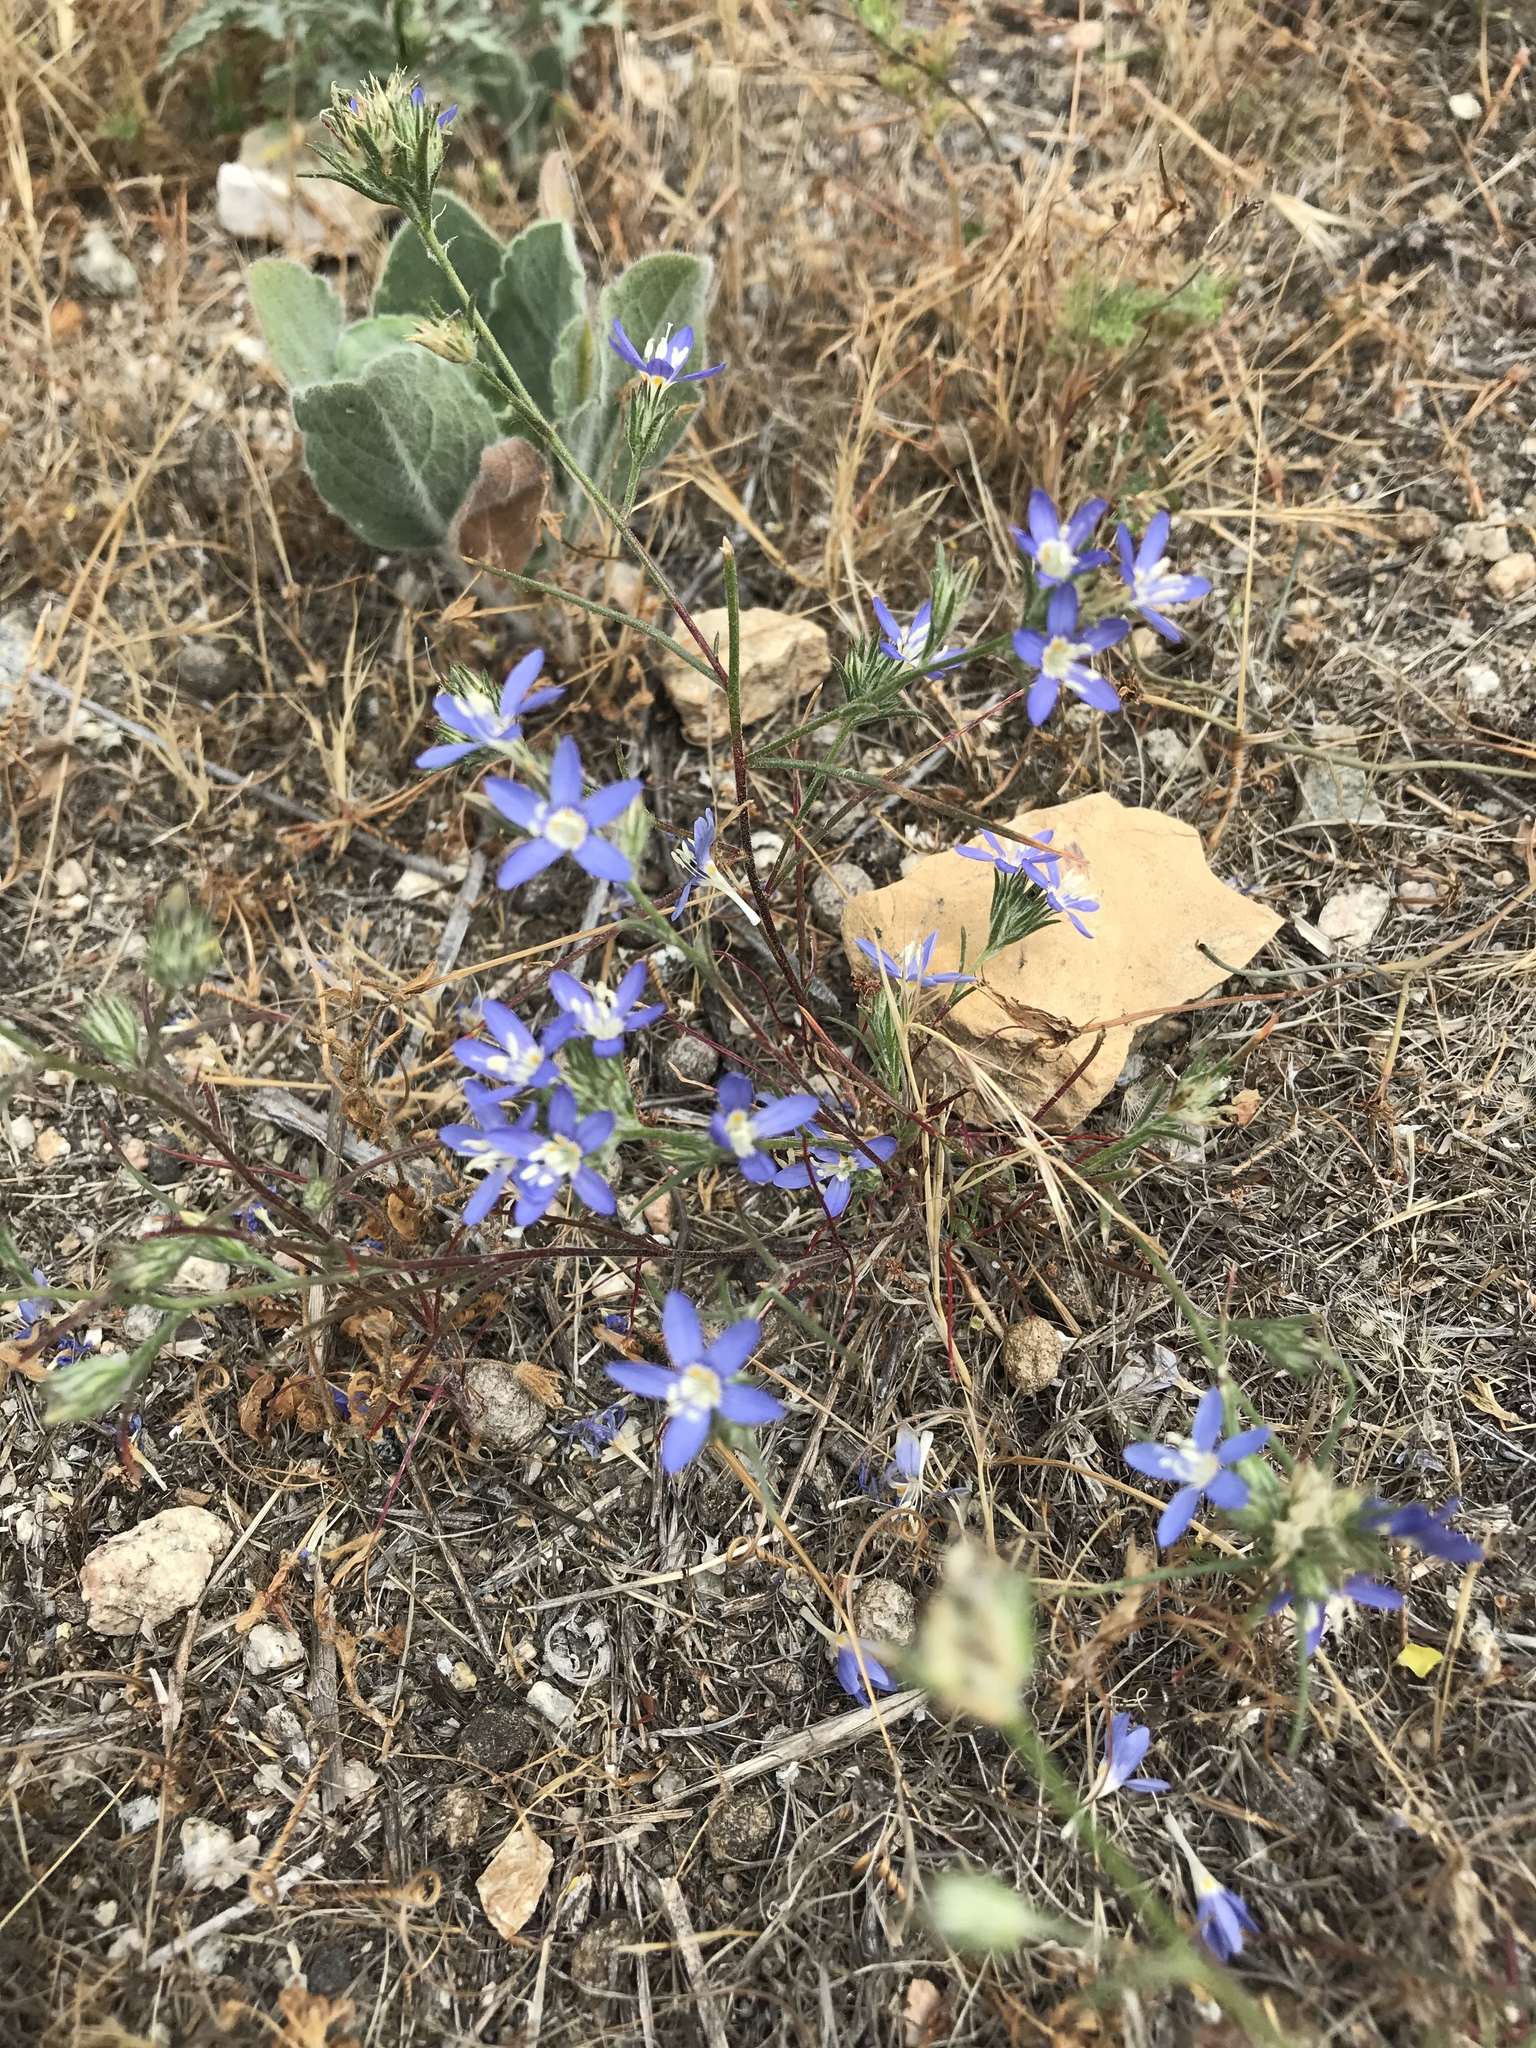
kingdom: Plantae
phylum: Tracheophyta
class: Magnoliopsida
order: Ericales
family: Polemoniaceae
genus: Eriastrum
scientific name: Eriastrum sapphirinum
